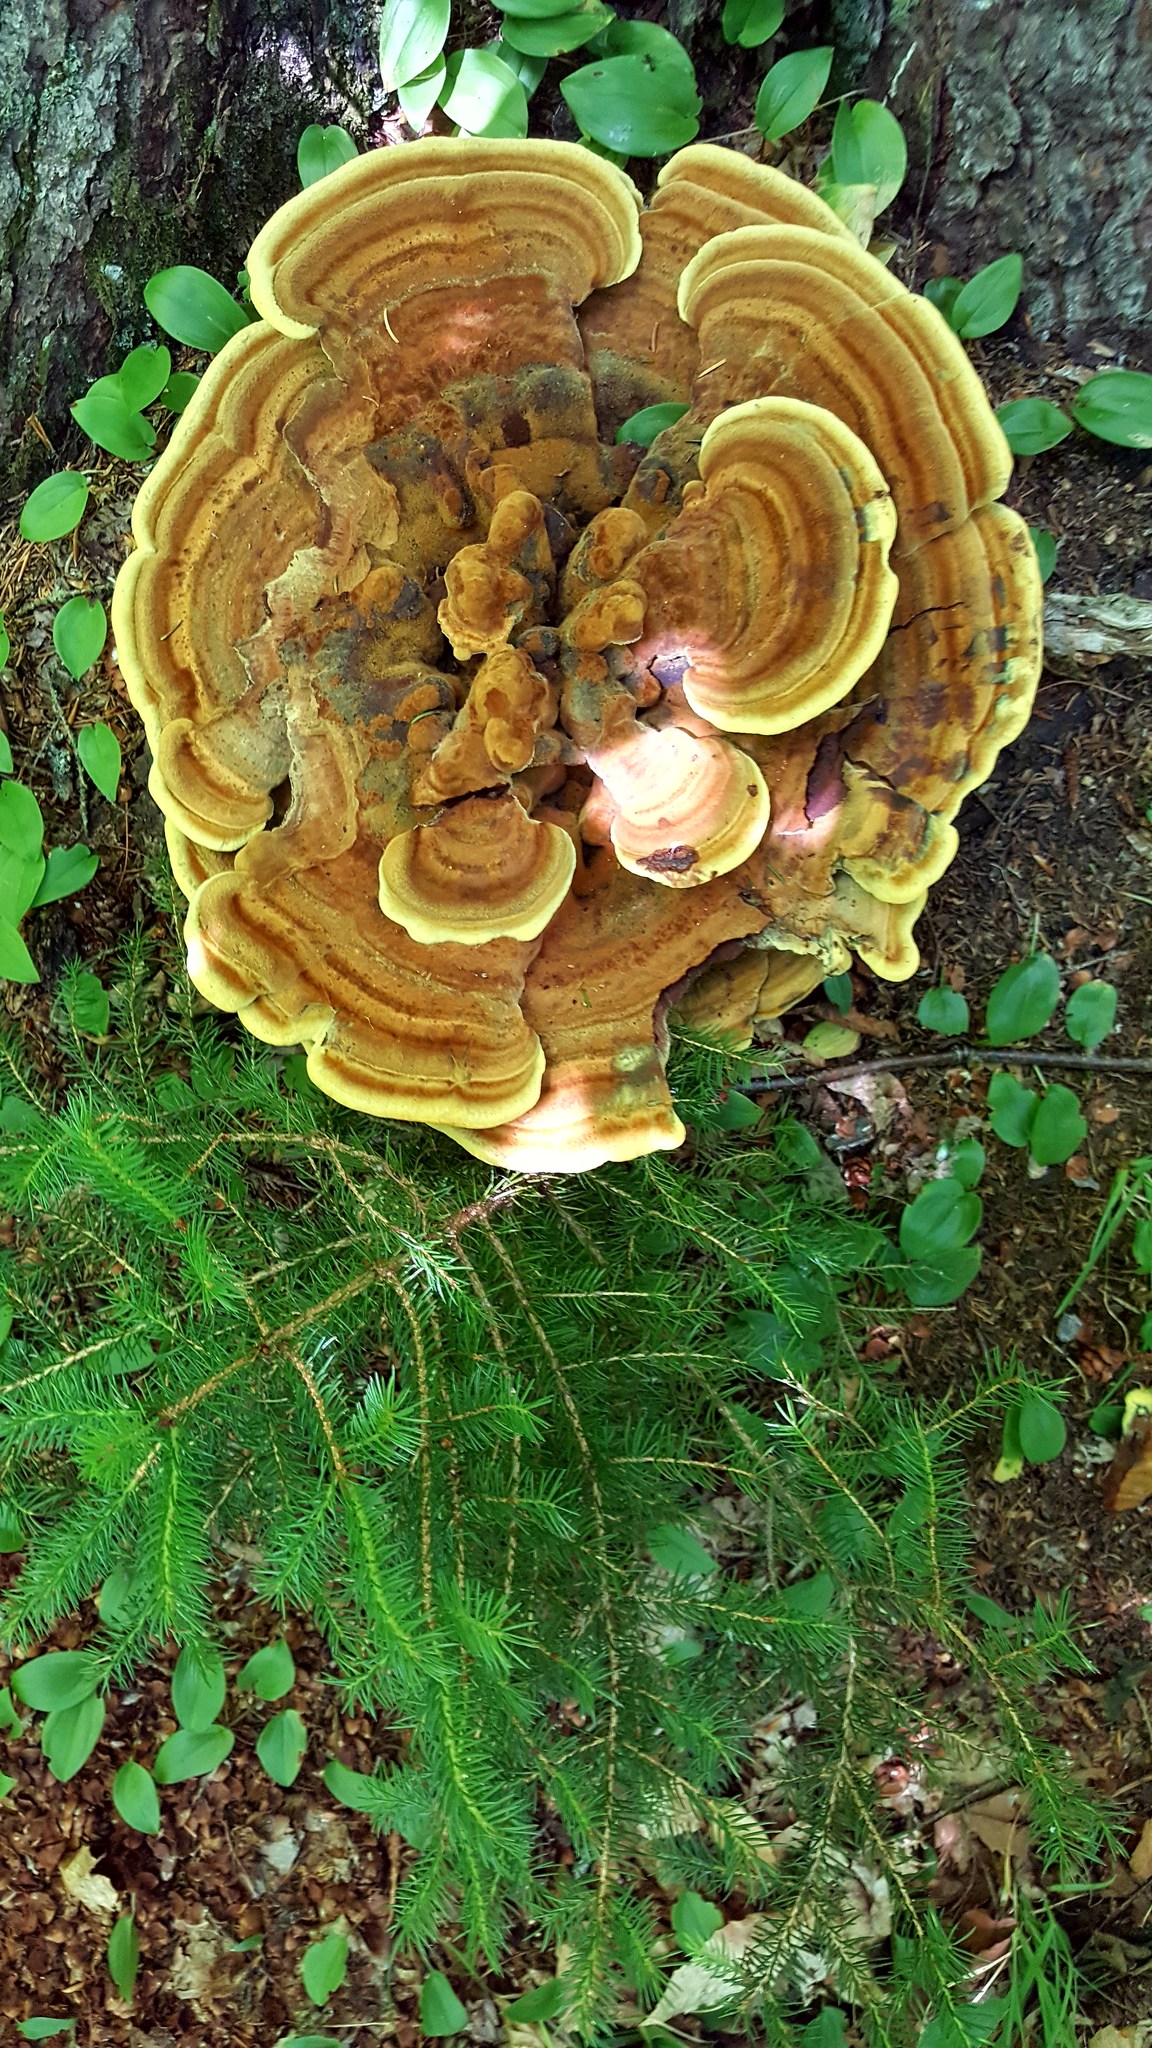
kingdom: Fungi
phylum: Basidiomycota
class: Agaricomycetes
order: Polyporales
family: Laetiporaceae
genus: Phaeolus
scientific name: Phaeolus schweinitzii
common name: Dyer's mazegill
